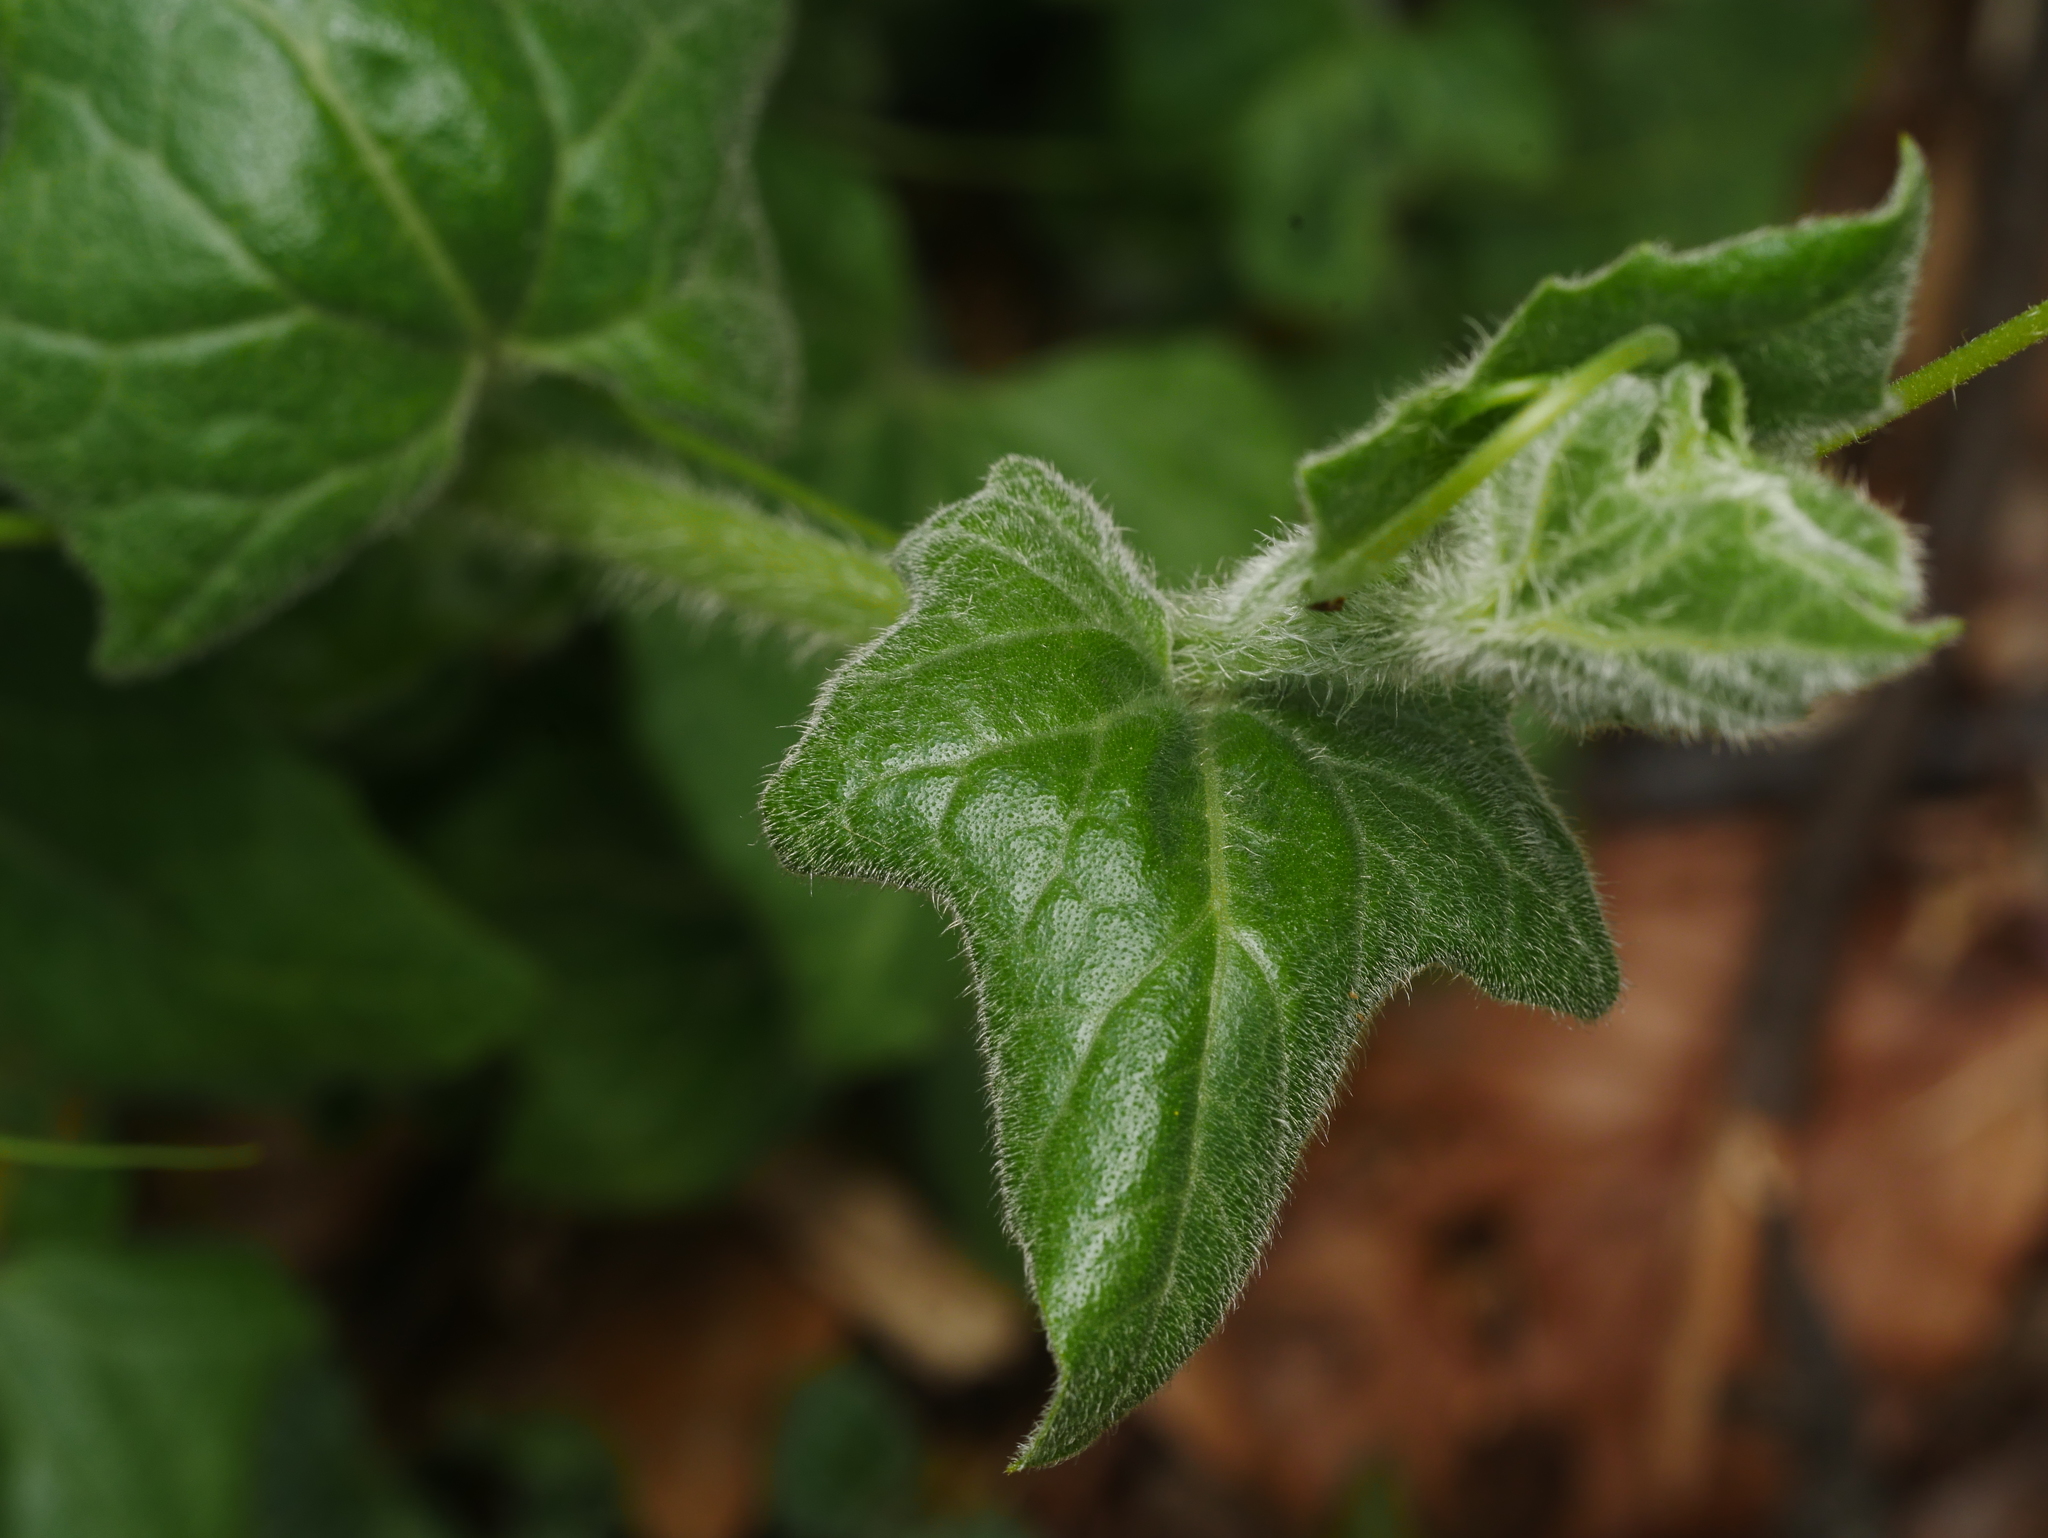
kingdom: Plantae
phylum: Tracheophyta
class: Magnoliopsida
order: Cucurbitales
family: Cucurbitaceae
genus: Bryonia
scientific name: Bryonia cretica
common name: Cretan bryony
